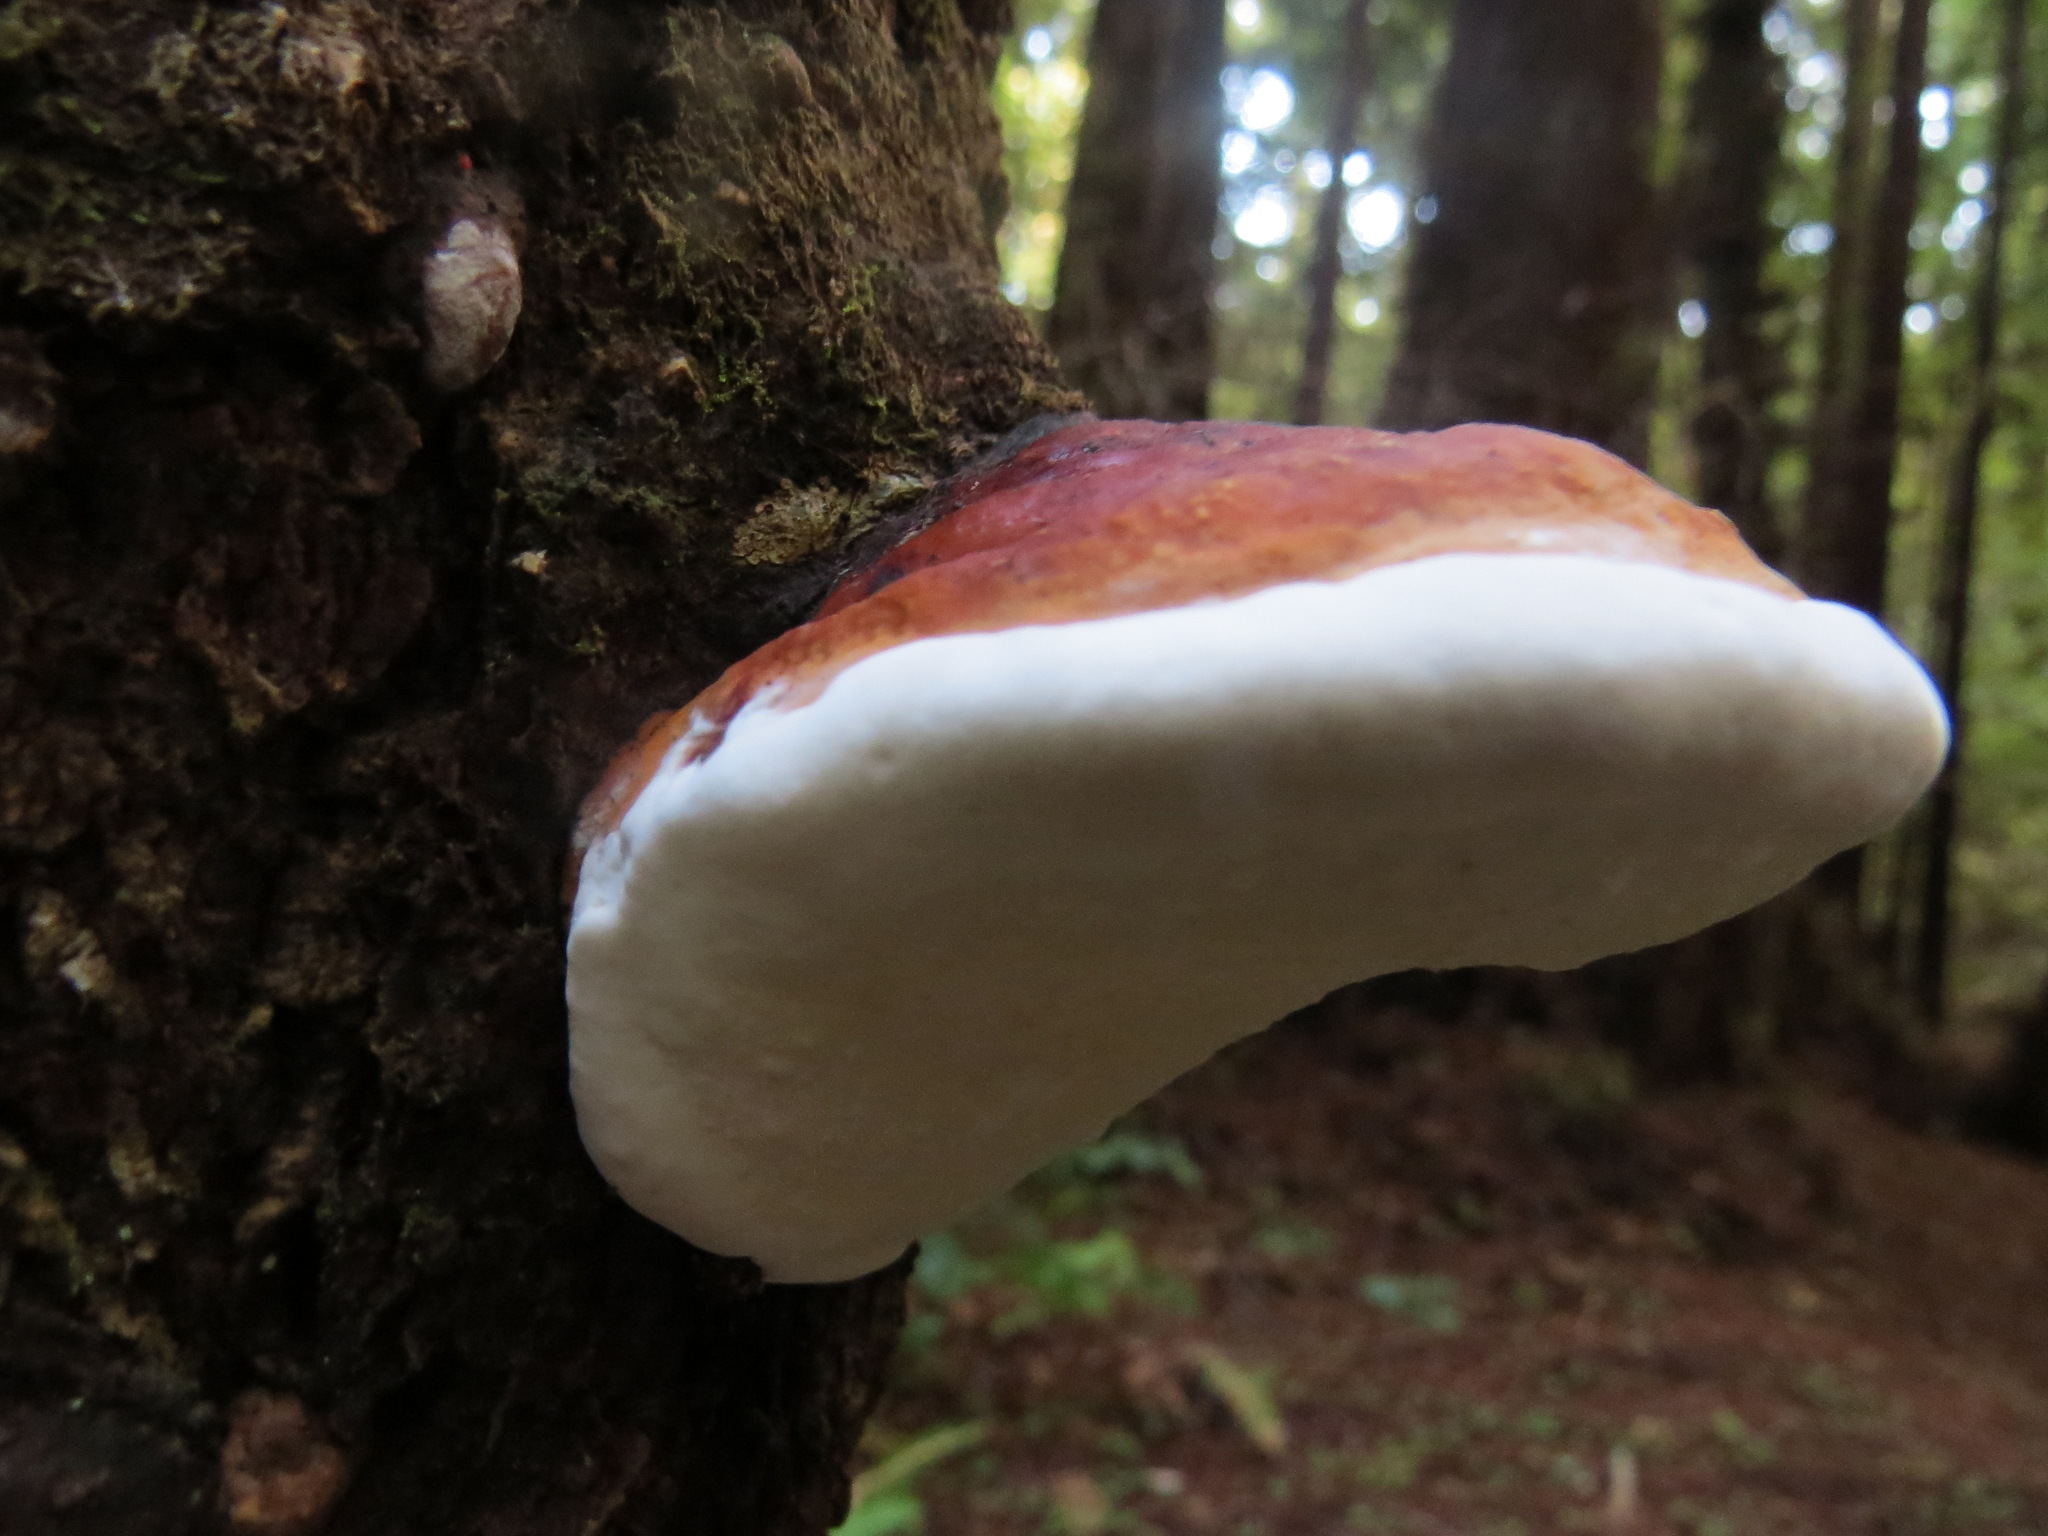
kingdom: Fungi
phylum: Basidiomycota
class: Agaricomycetes
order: Polyporales
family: Fomitopsidaceae
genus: Fomitopsis
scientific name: Fomitopsis mounceae
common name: Northern red belt
